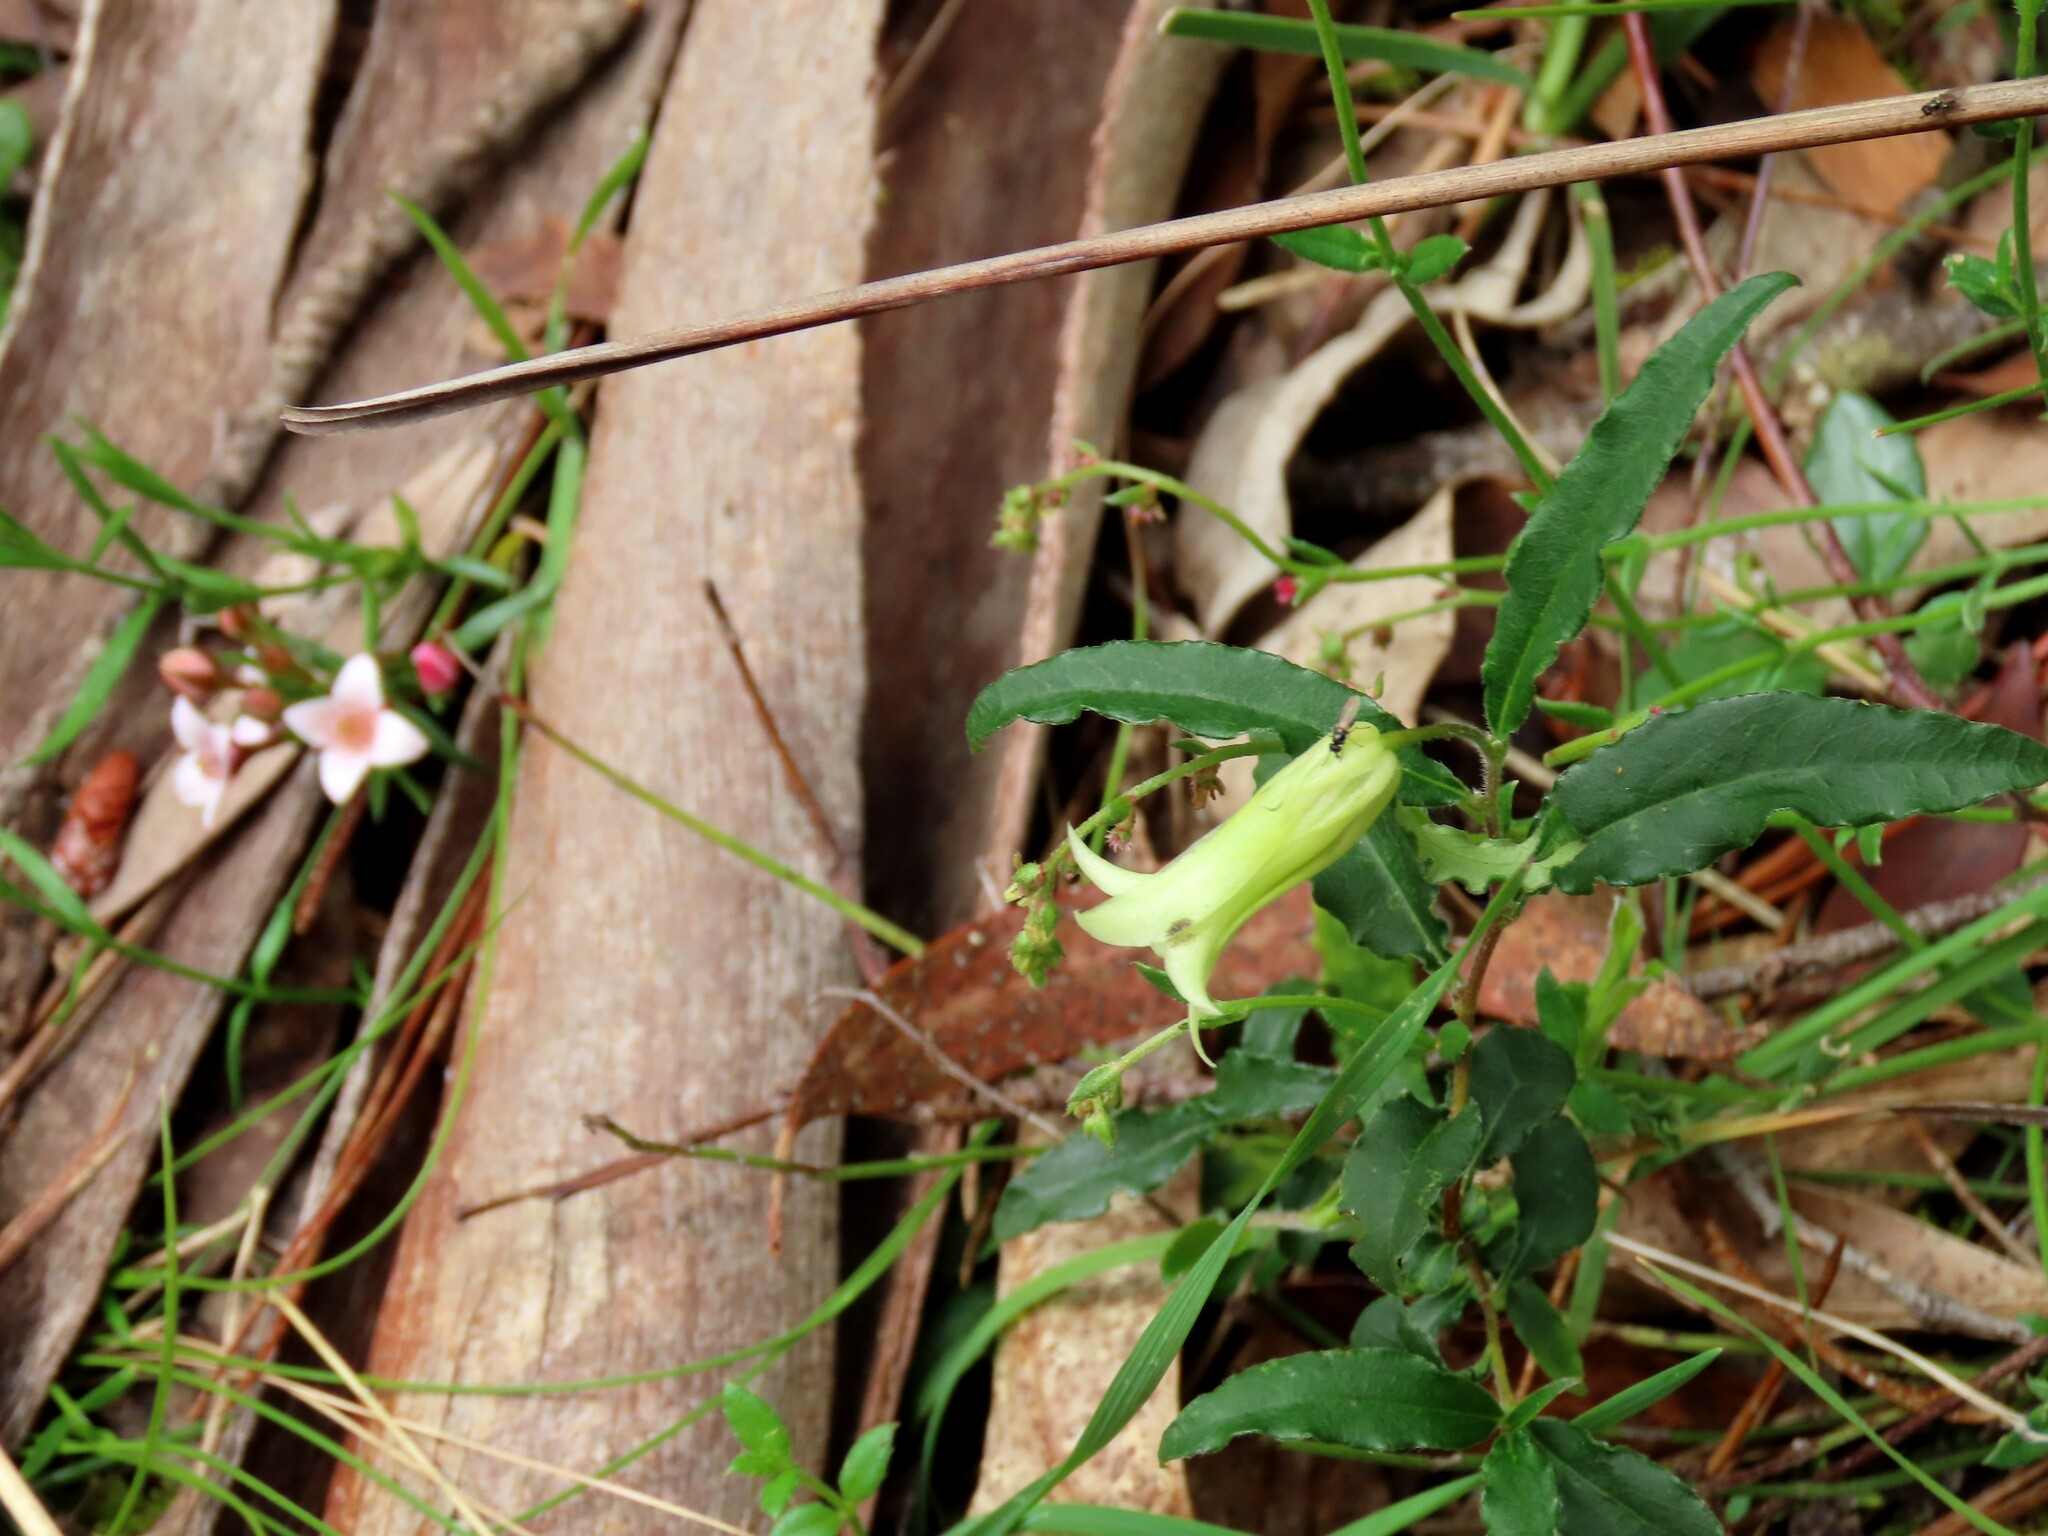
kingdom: Plantae
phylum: Tracheophyta
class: Magnoliopsida
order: Apiales
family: Pittosporaceae
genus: Billardiera
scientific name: Billardiera mutabilis
